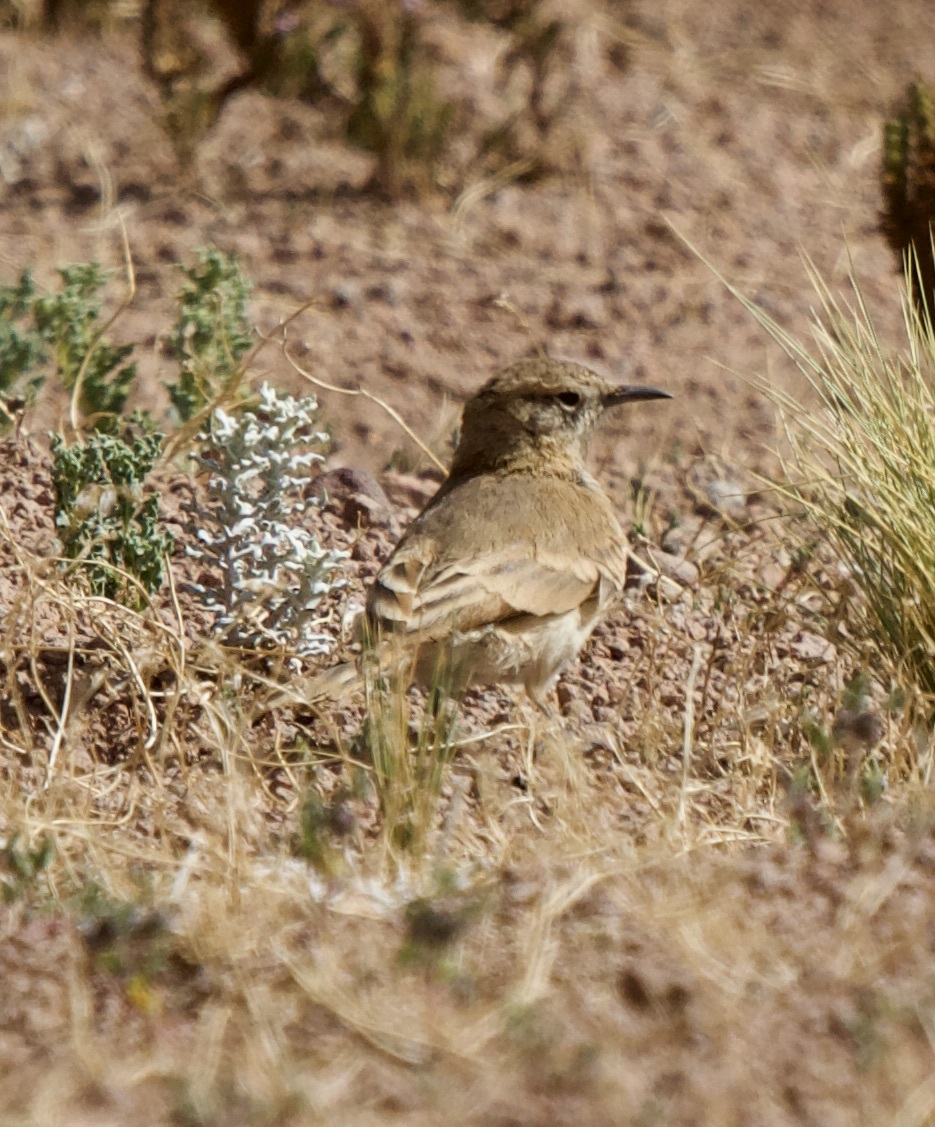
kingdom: Animalia
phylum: Chordata
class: Aves
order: Passeriformes
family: Furnariidae
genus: Geositta
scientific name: Geositta punensis
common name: Puna miner
